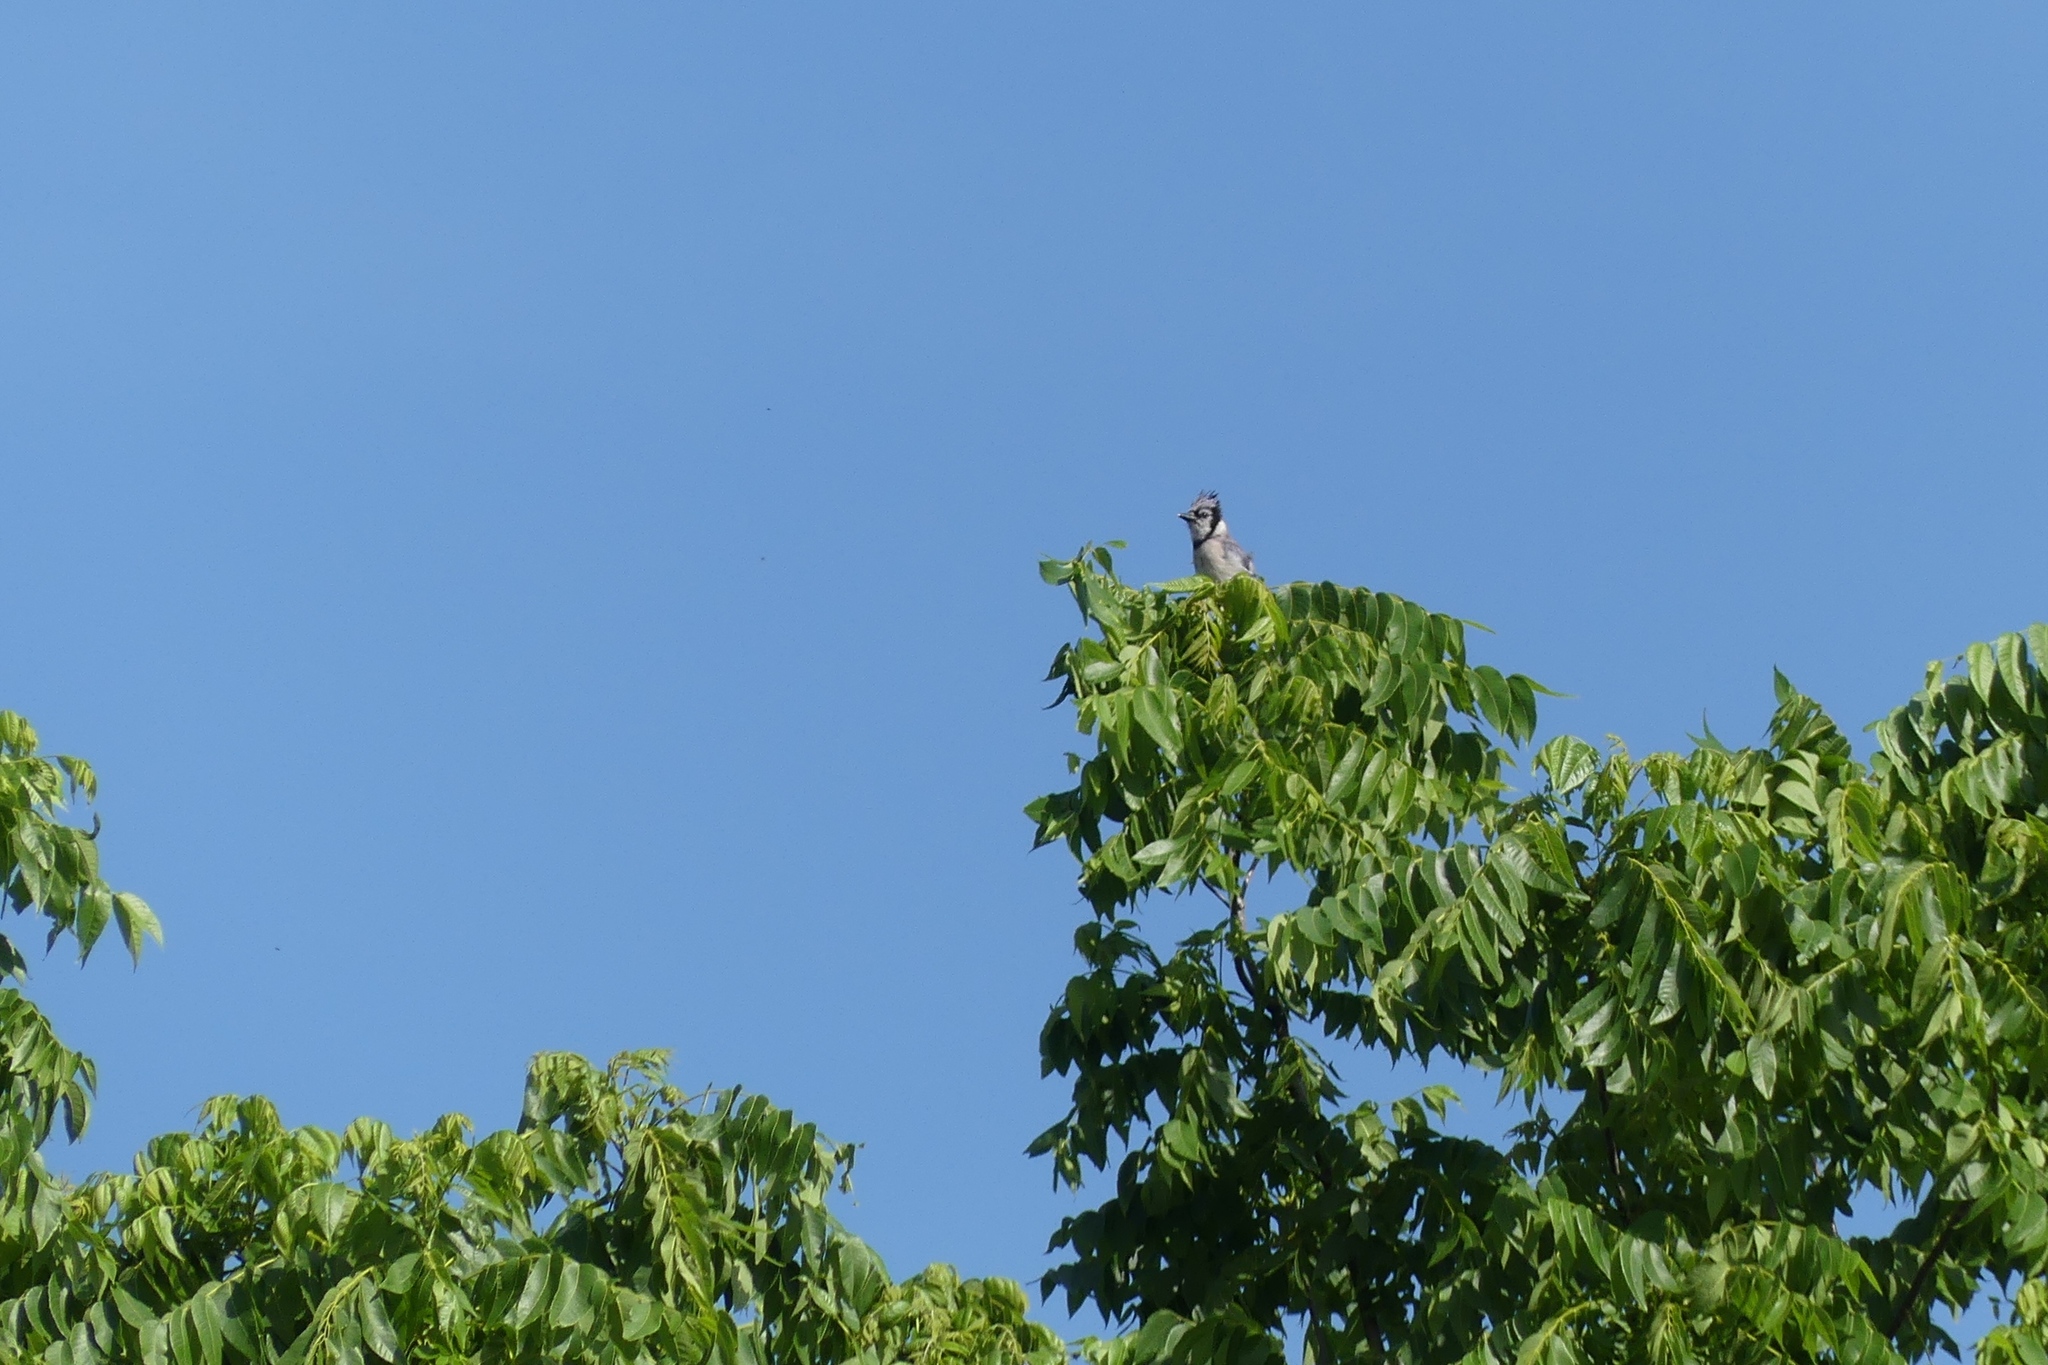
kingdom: Animalia
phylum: Chordata
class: Aves
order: Passeriformes
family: Corvidae
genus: Cyanocitta
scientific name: Cyanocitta cristata
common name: Blue jay
